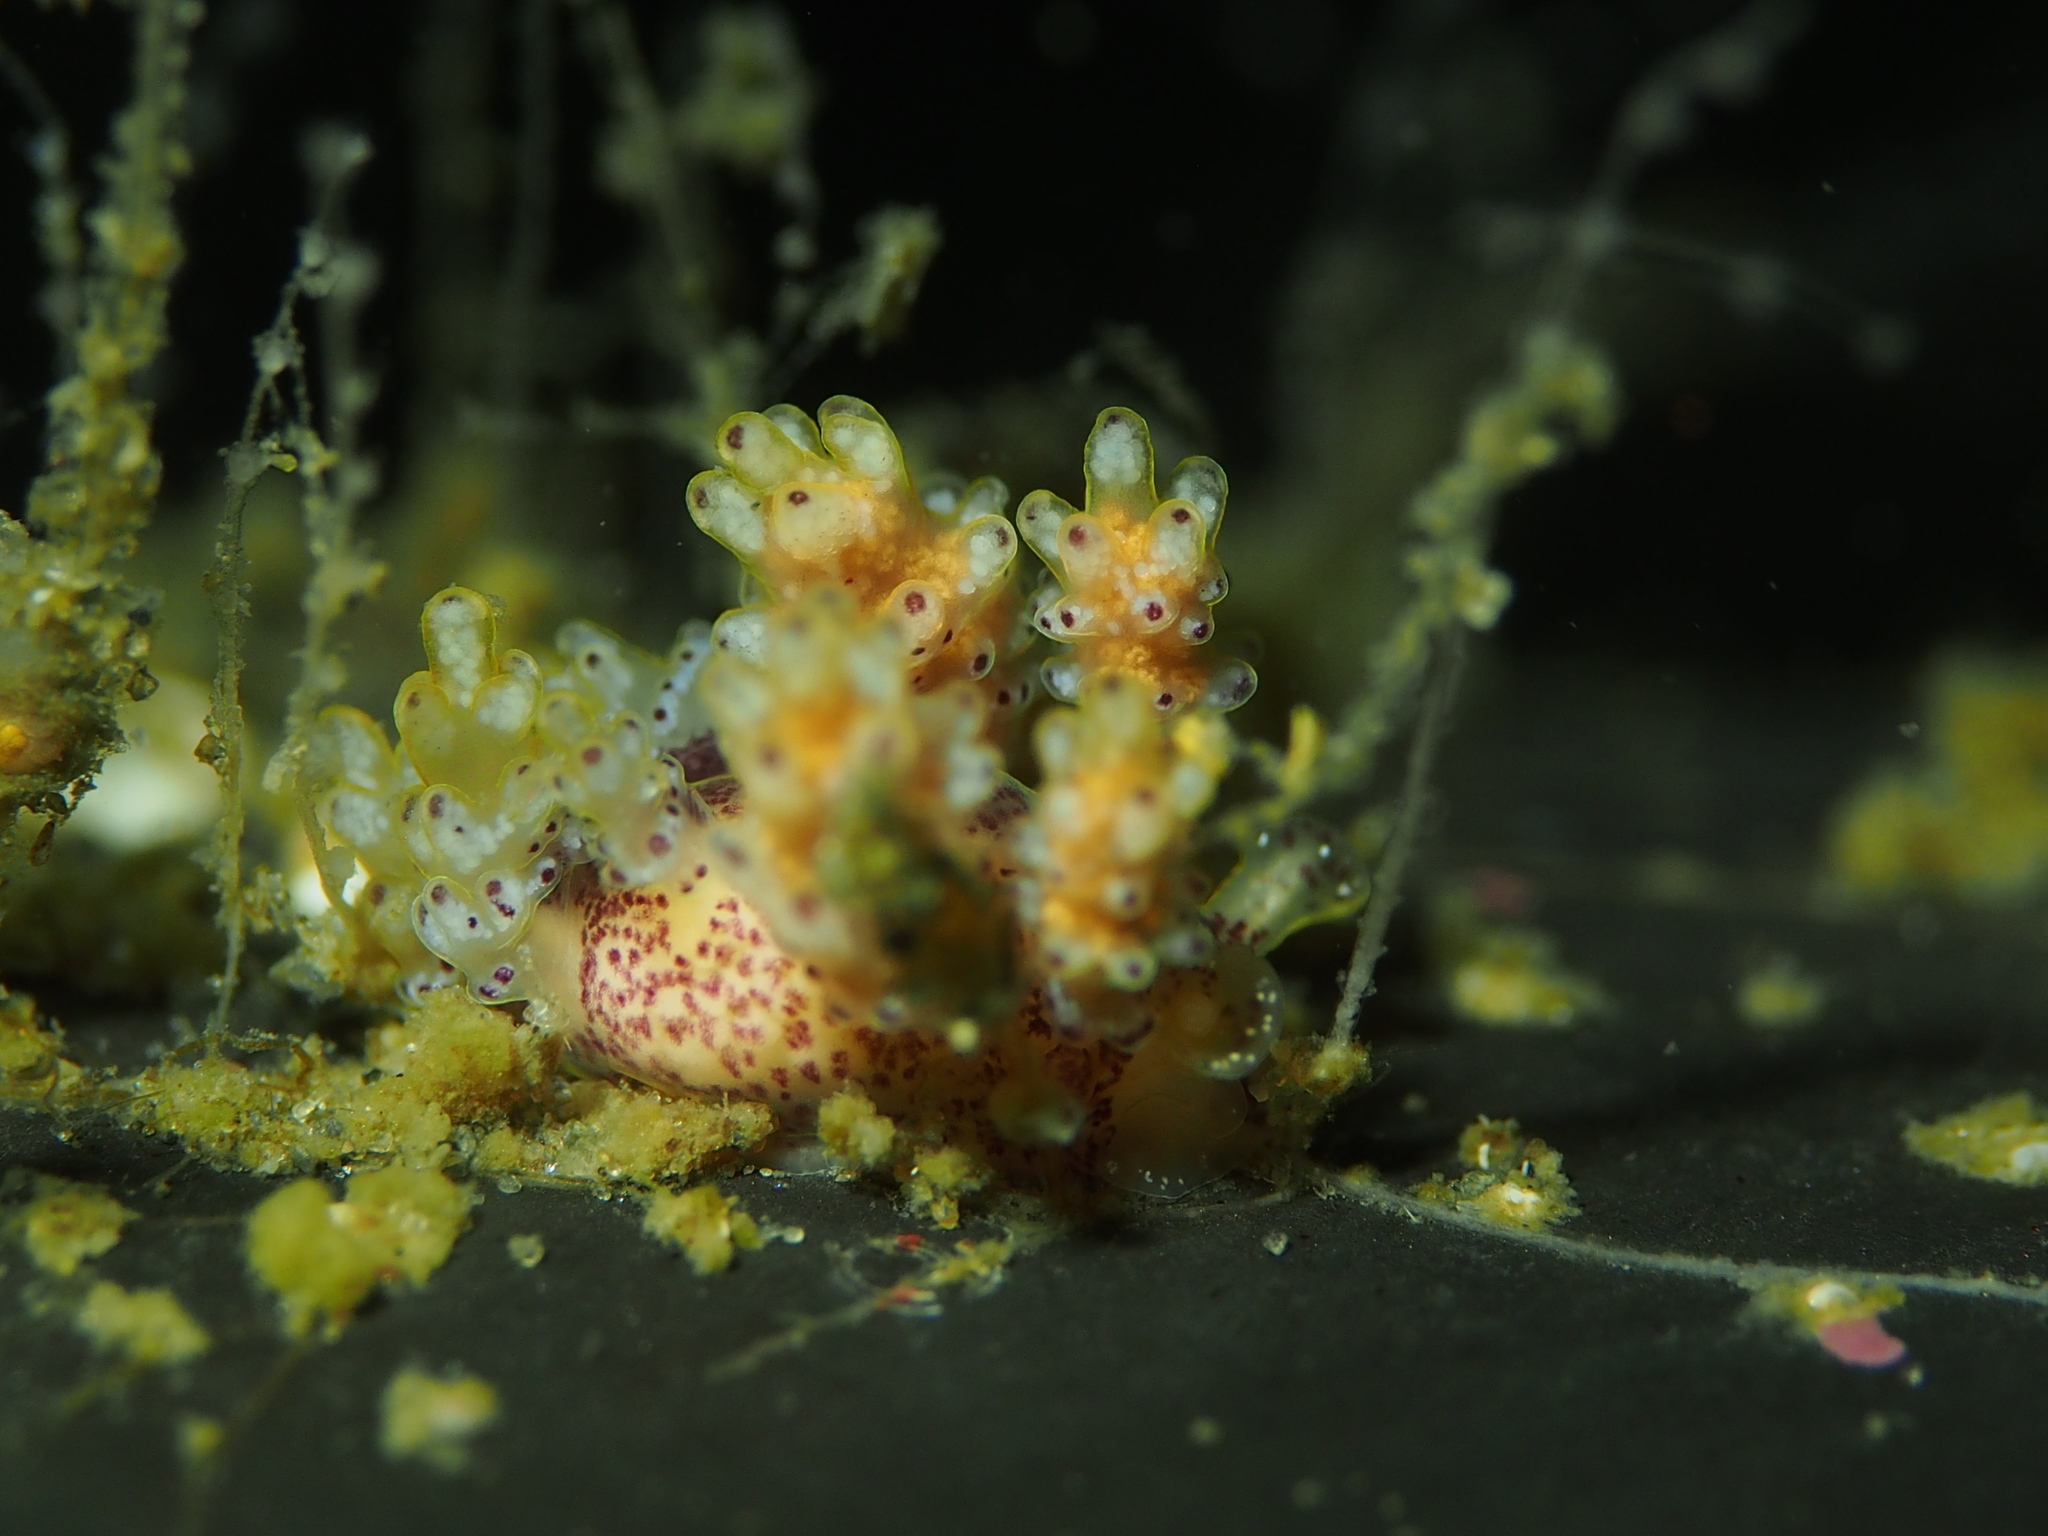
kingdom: Animalia
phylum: Mollusca
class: Gastropoda
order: Nudibranchia
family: Dotidae
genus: Doto
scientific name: Doto maculata
